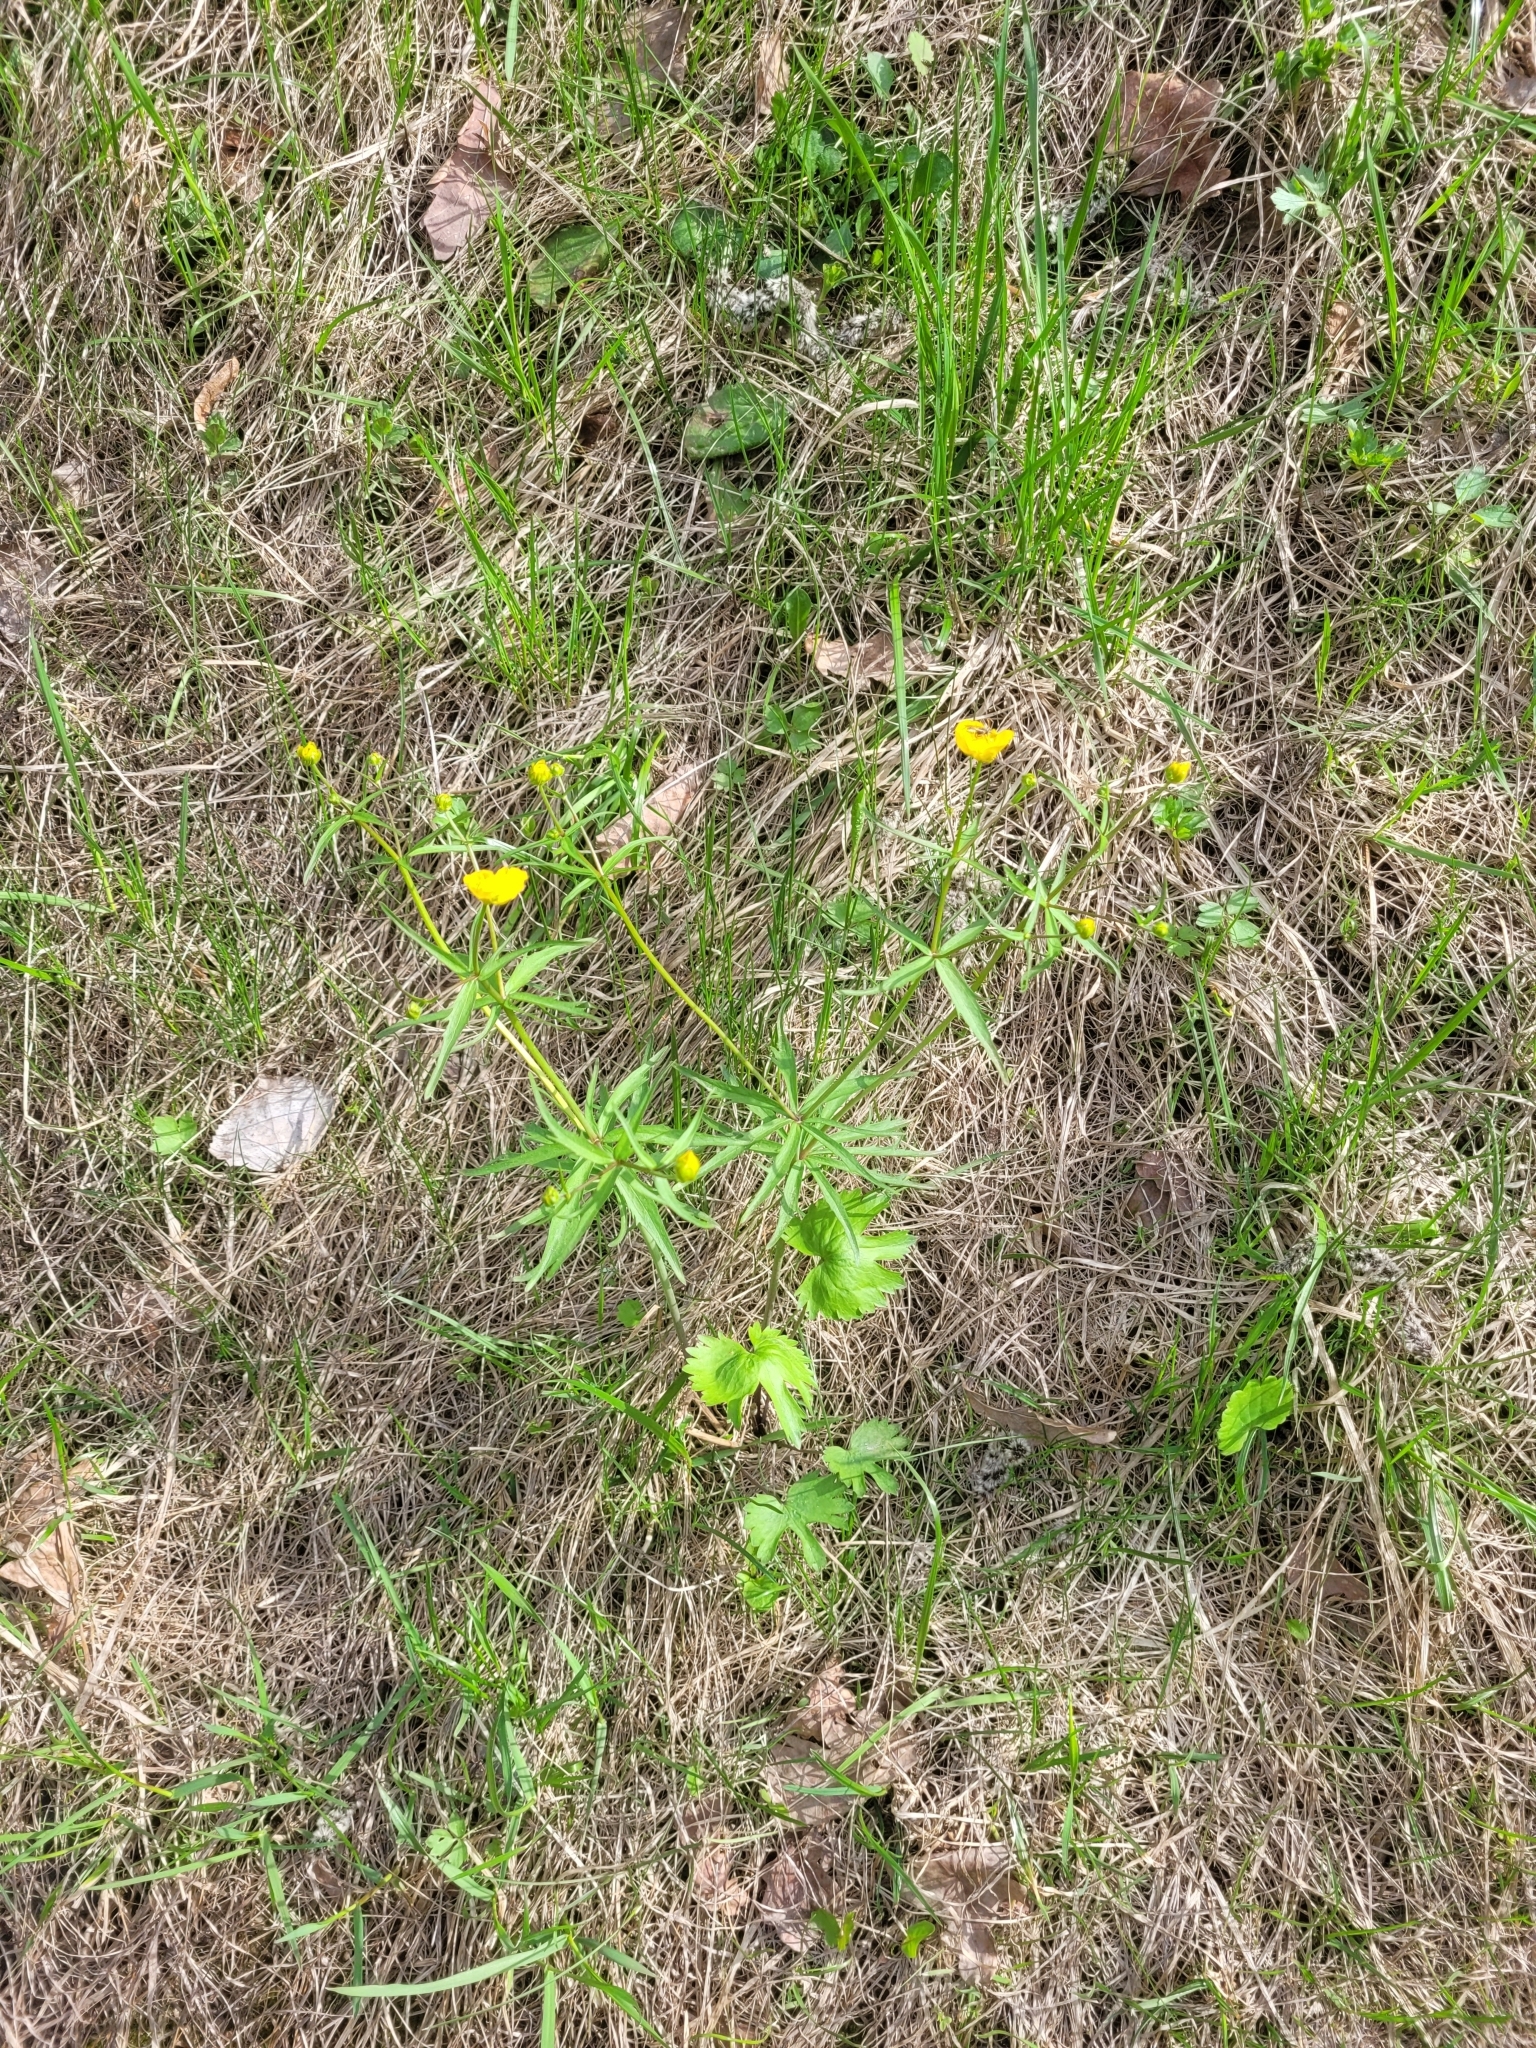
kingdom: Plantae
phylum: Tracheophyta
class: Magnoliopsida
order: Ranunculales
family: Ranunculaceae
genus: Ranunculus
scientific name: Ranunculus fallax
